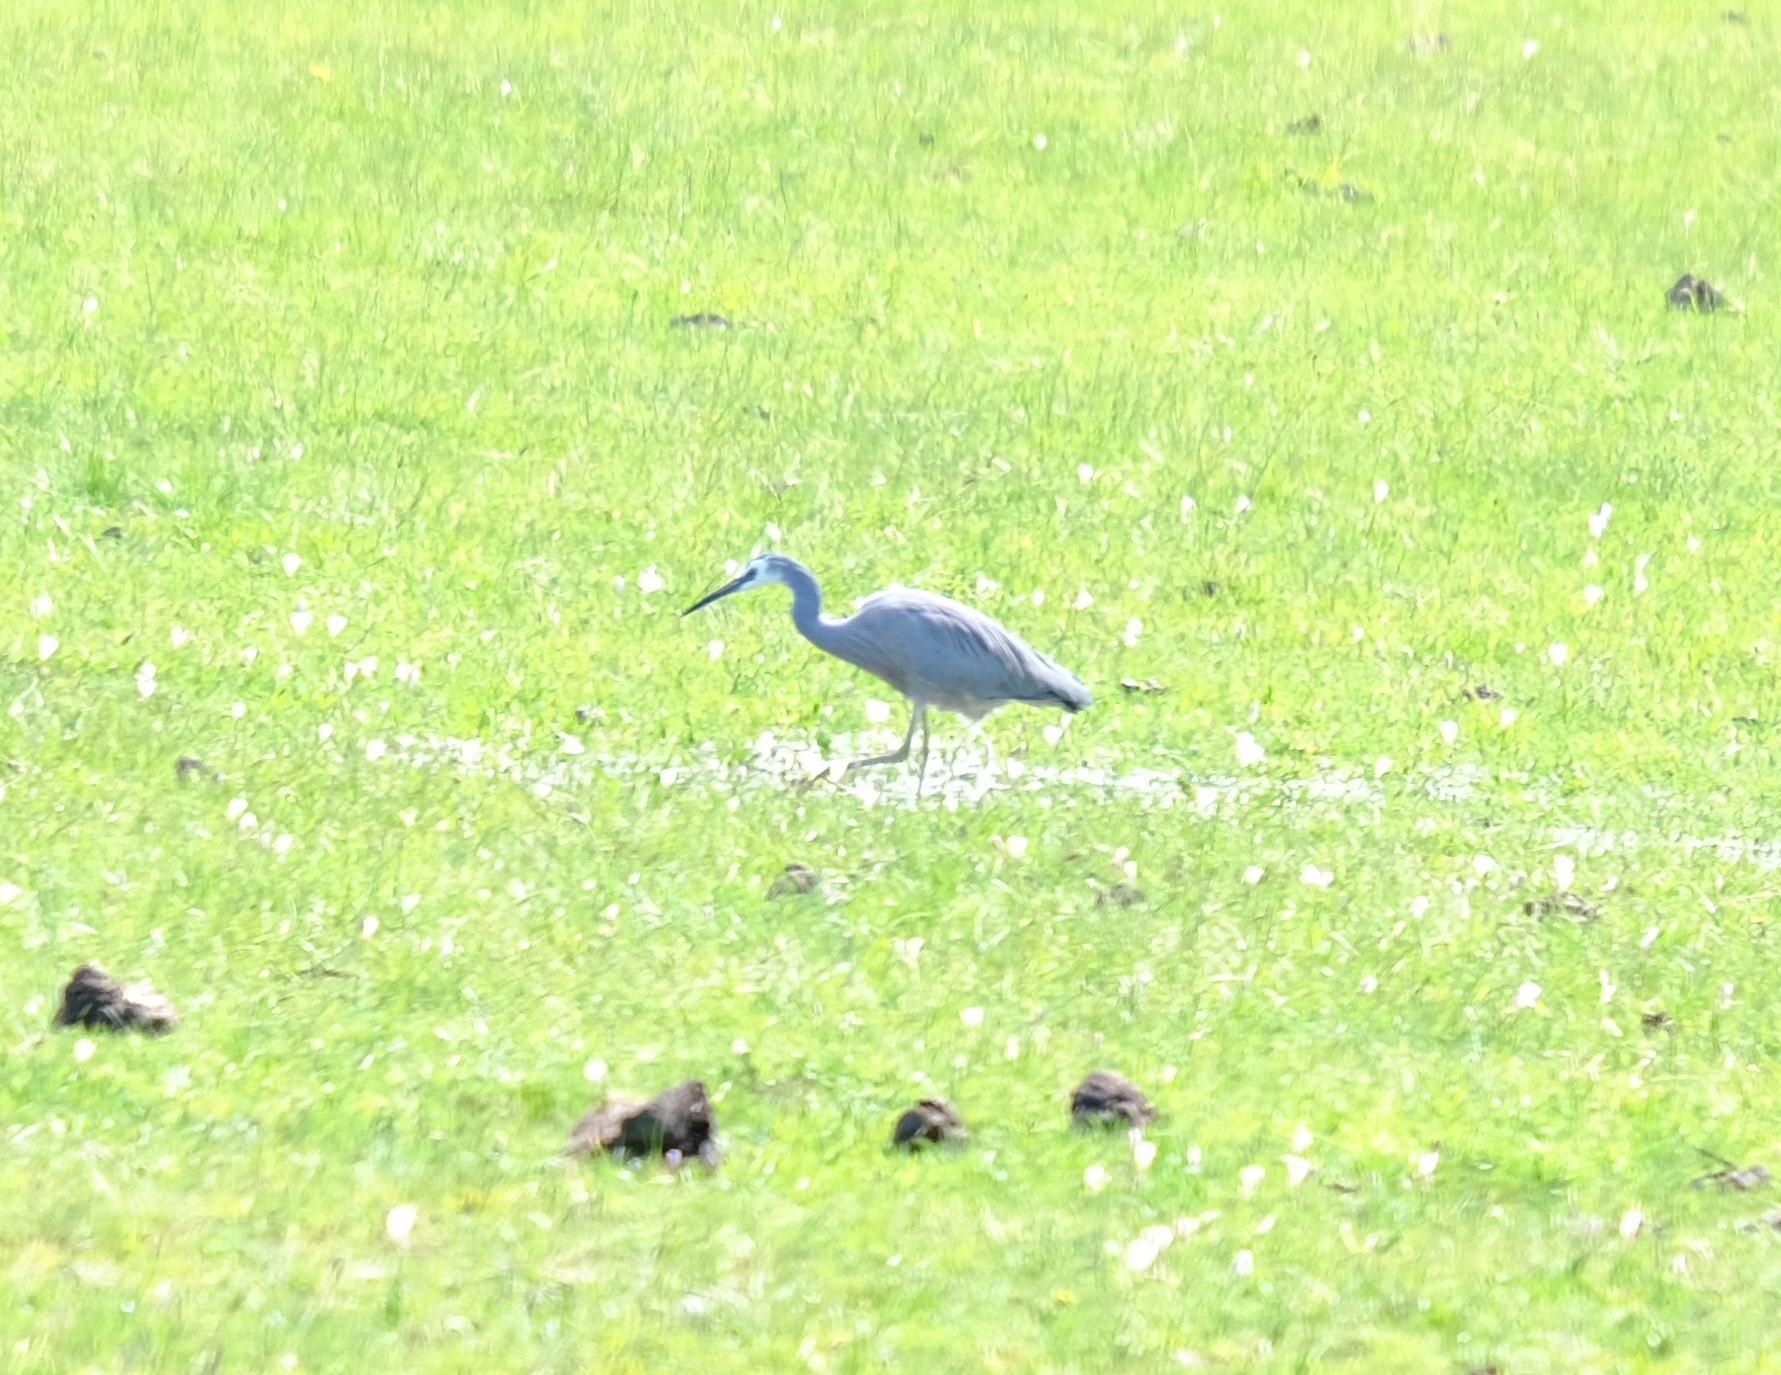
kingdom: Animalia
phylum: Chordata
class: Aves
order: Pelecaniformes
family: Ardeidae
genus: Egretta
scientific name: Egretta novaehollandiae
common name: White-faced heron
